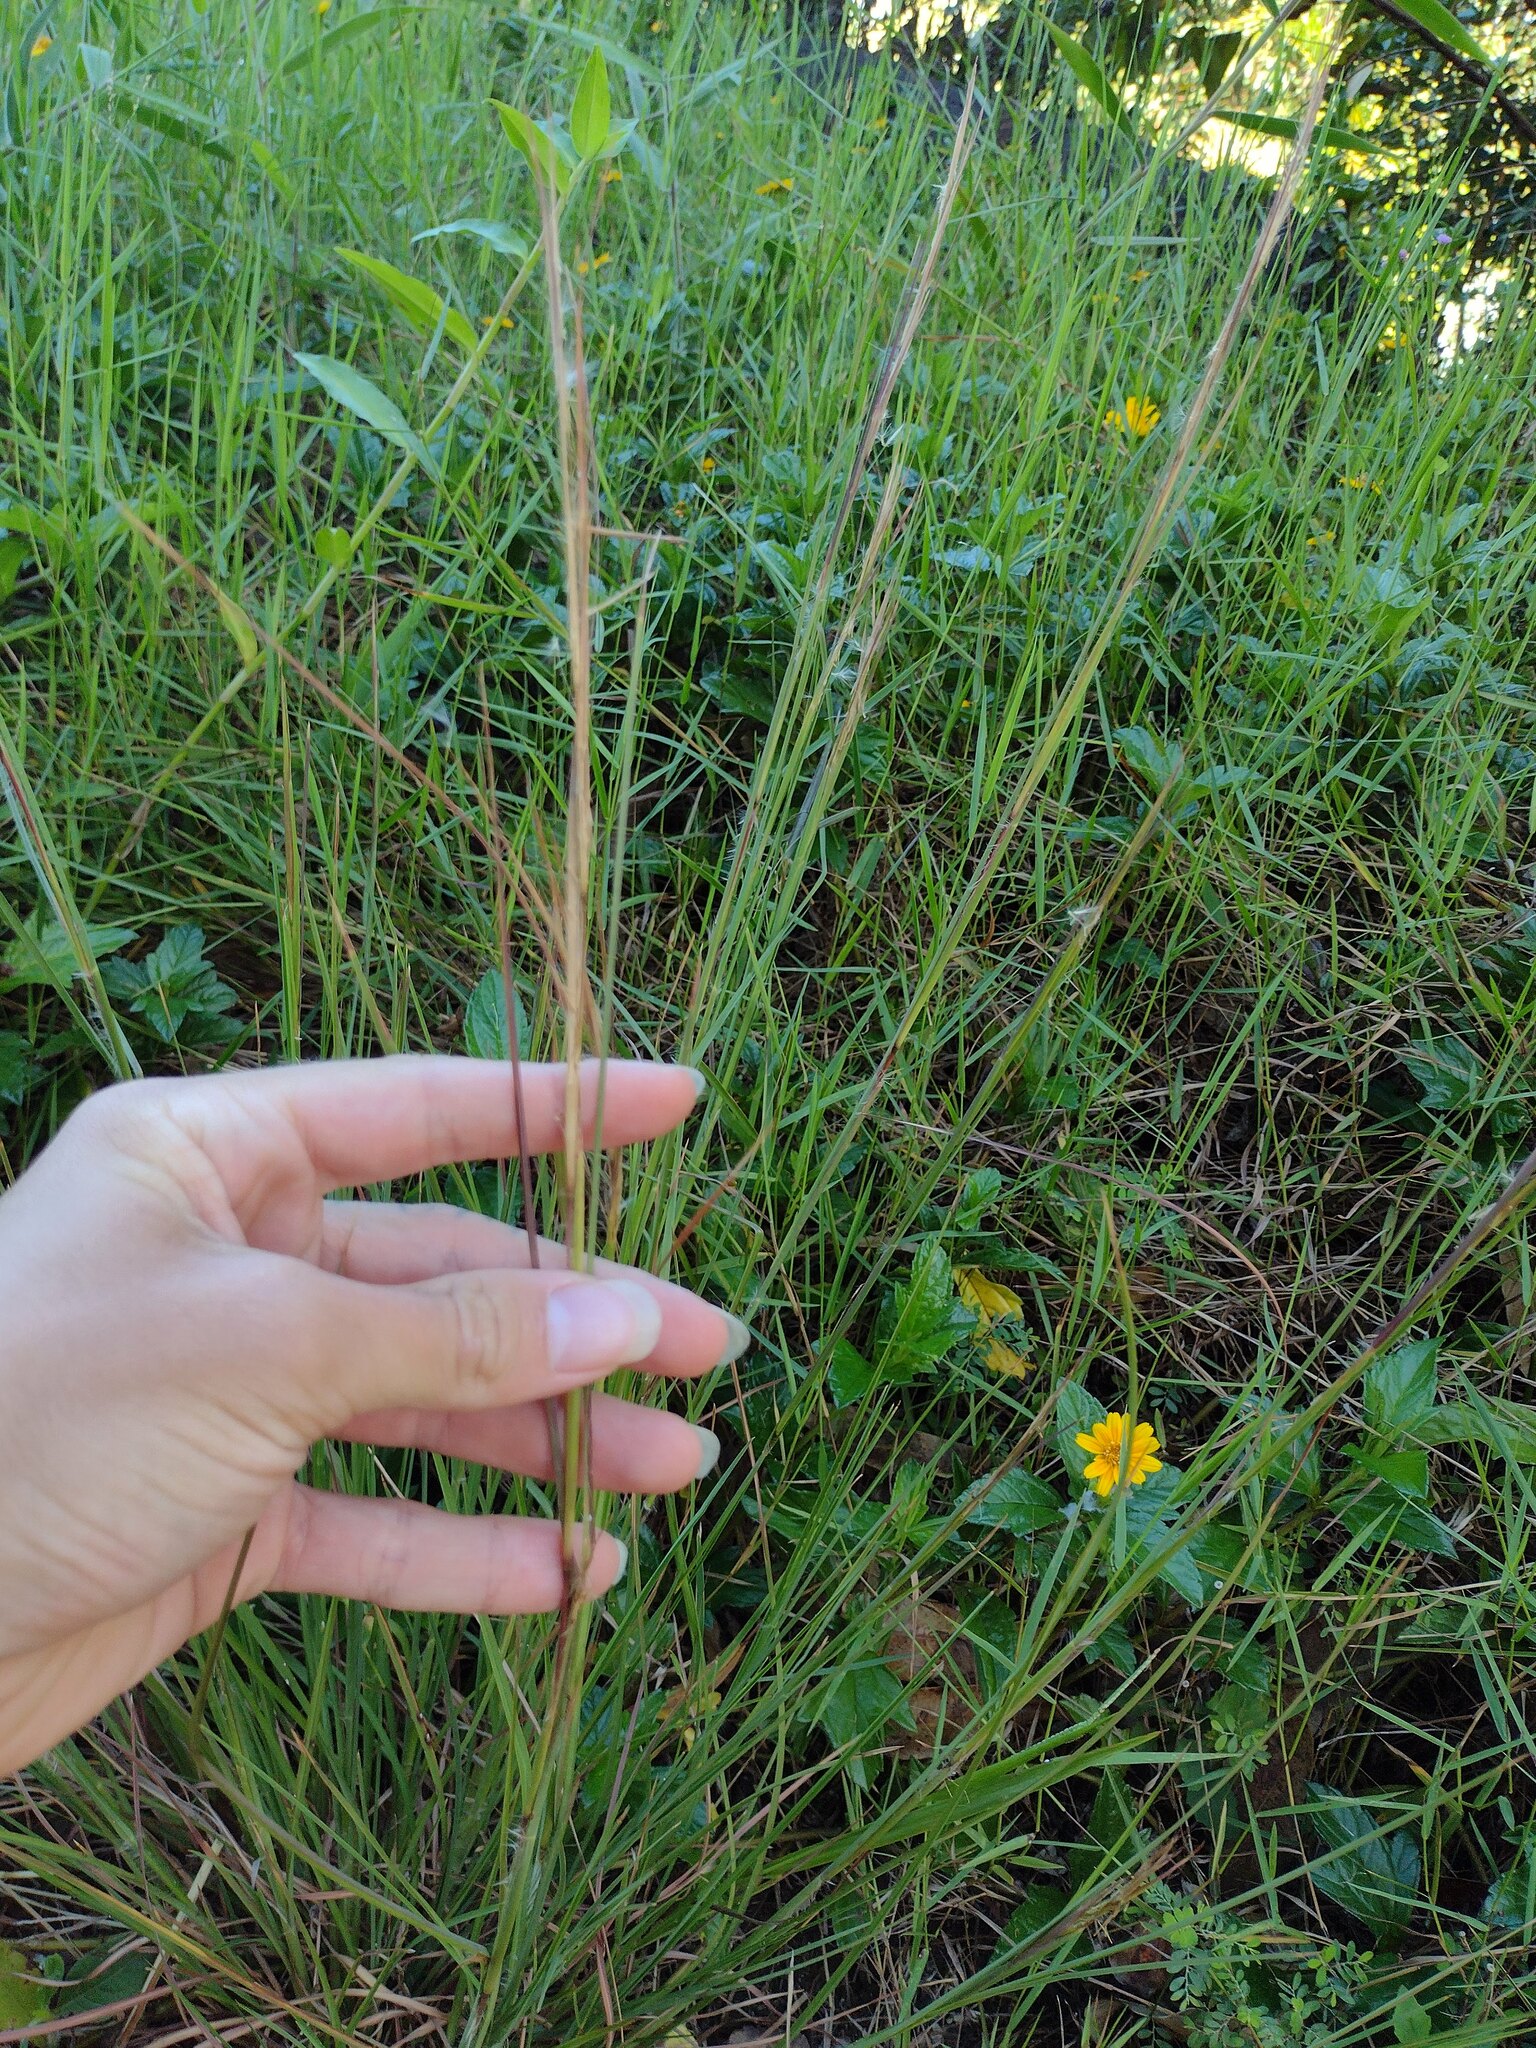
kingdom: Plantae
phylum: Tracheophyta
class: Liliopsida
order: Poales
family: Poaceae
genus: Andropogon
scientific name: Andropogon virginicus
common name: Broomsedge bluestem
